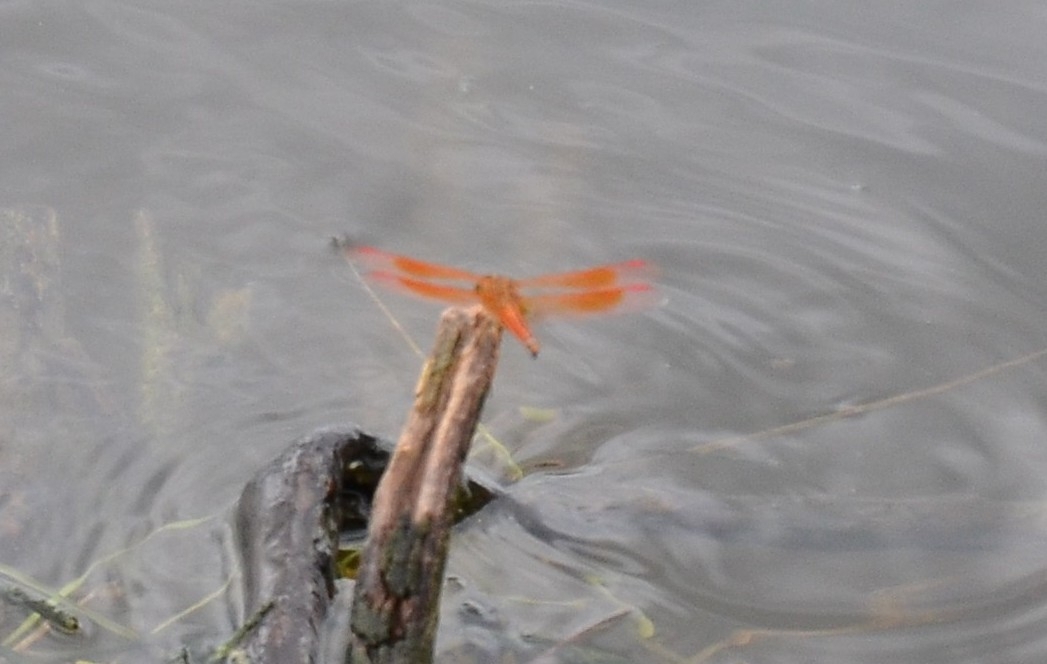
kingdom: Animalia
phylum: Arthropoda
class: Insecta
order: Odonata
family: Libellulidae
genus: Brachythemis
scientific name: Brachythemis contaminata
